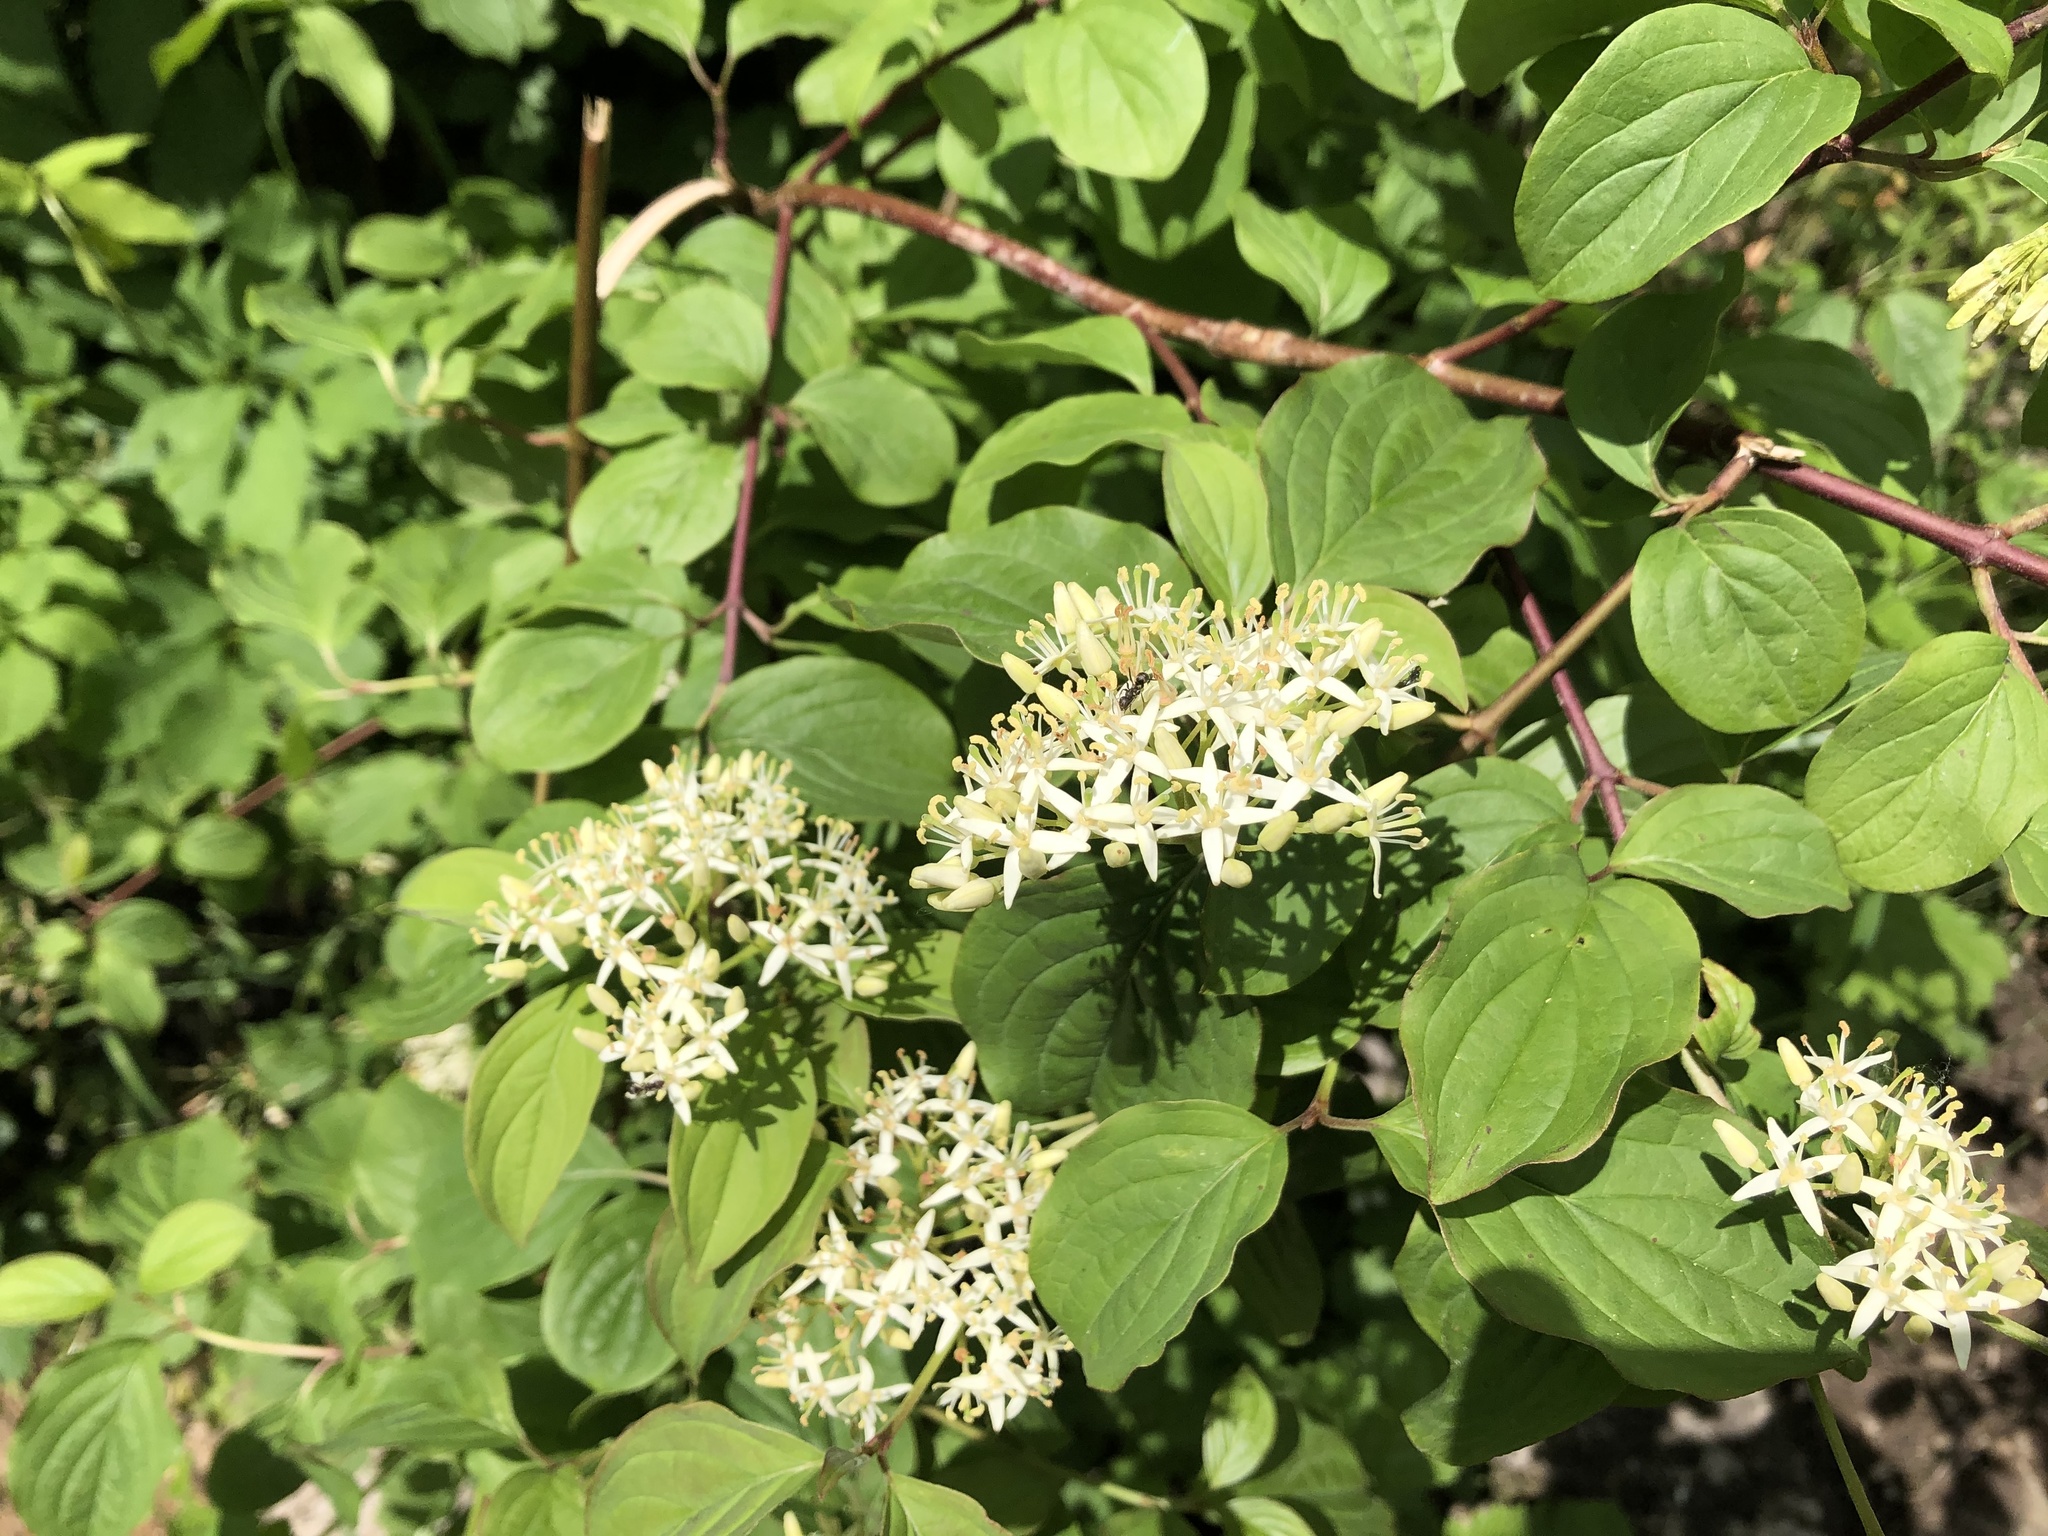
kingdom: Plantae
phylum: Tracheophyta
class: Magnoliopsida
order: Cornales
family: Cornaceae
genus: Cornus
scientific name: Cornus sanguinea
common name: Dogwood
